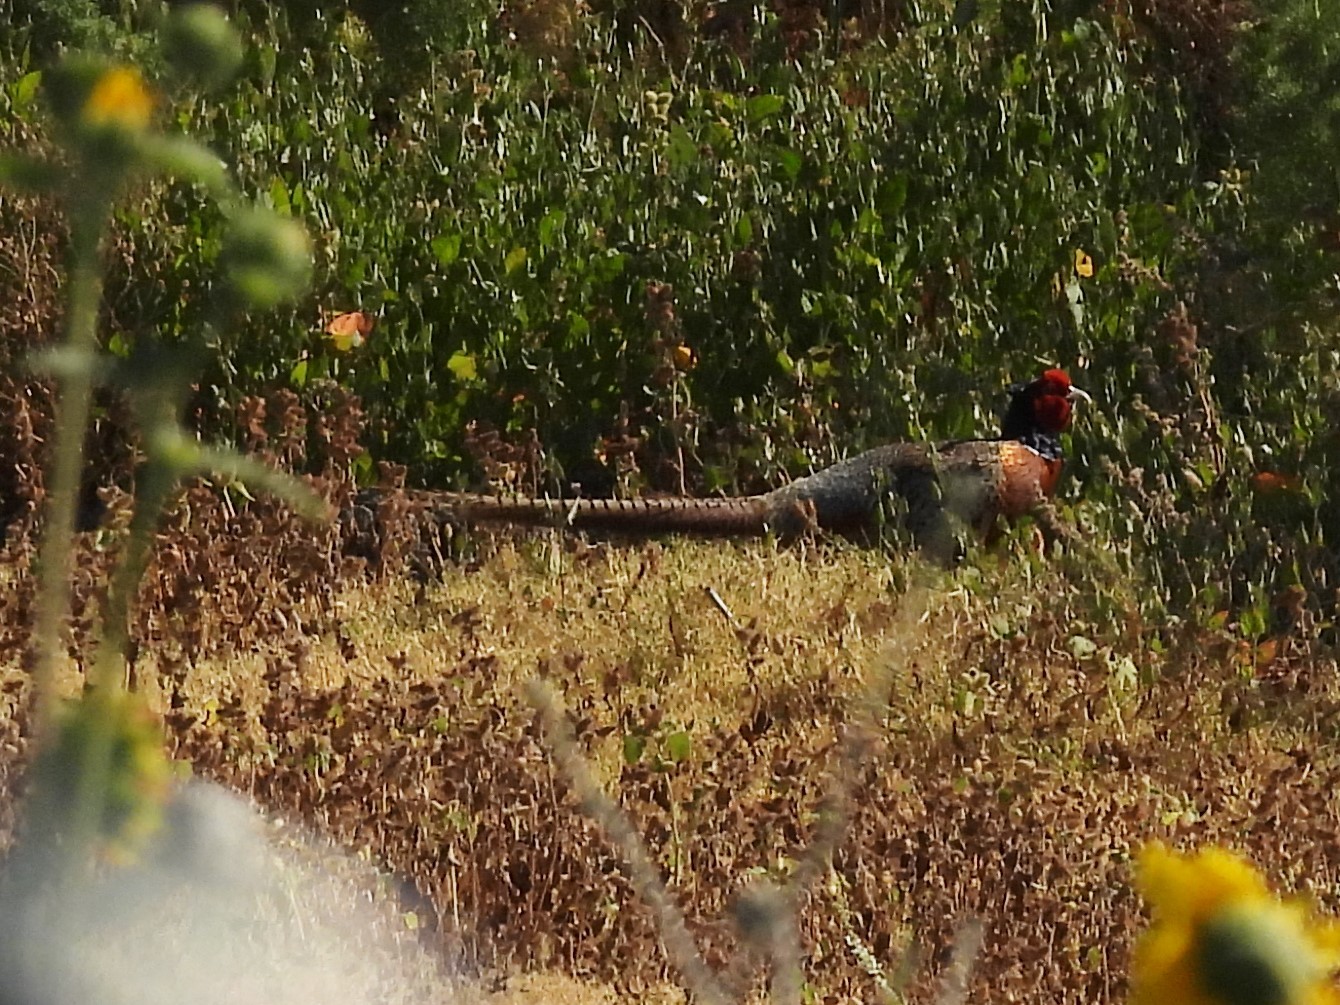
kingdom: Animalia
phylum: Chordata
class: Aves
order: Galliformes
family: Phasianidae
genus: Phasianus
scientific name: Phasianus colchicus
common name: Common pheasant
